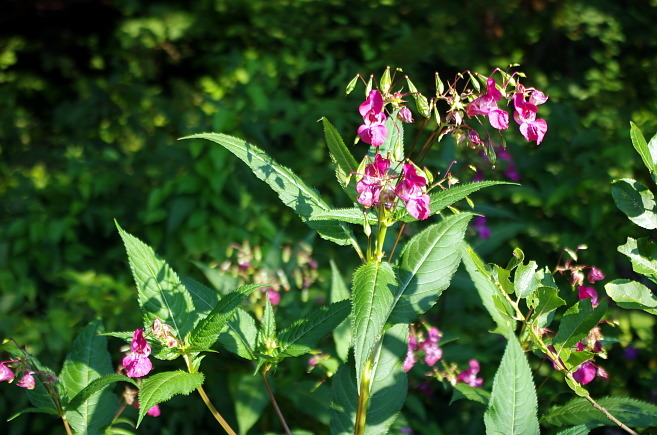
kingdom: Plantae
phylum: Tracheophyta
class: Magnoliopsida
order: Ericales
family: Balsaminaceae
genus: Impatiens
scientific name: Impatiens glandulifera
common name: Himalayan balsam
